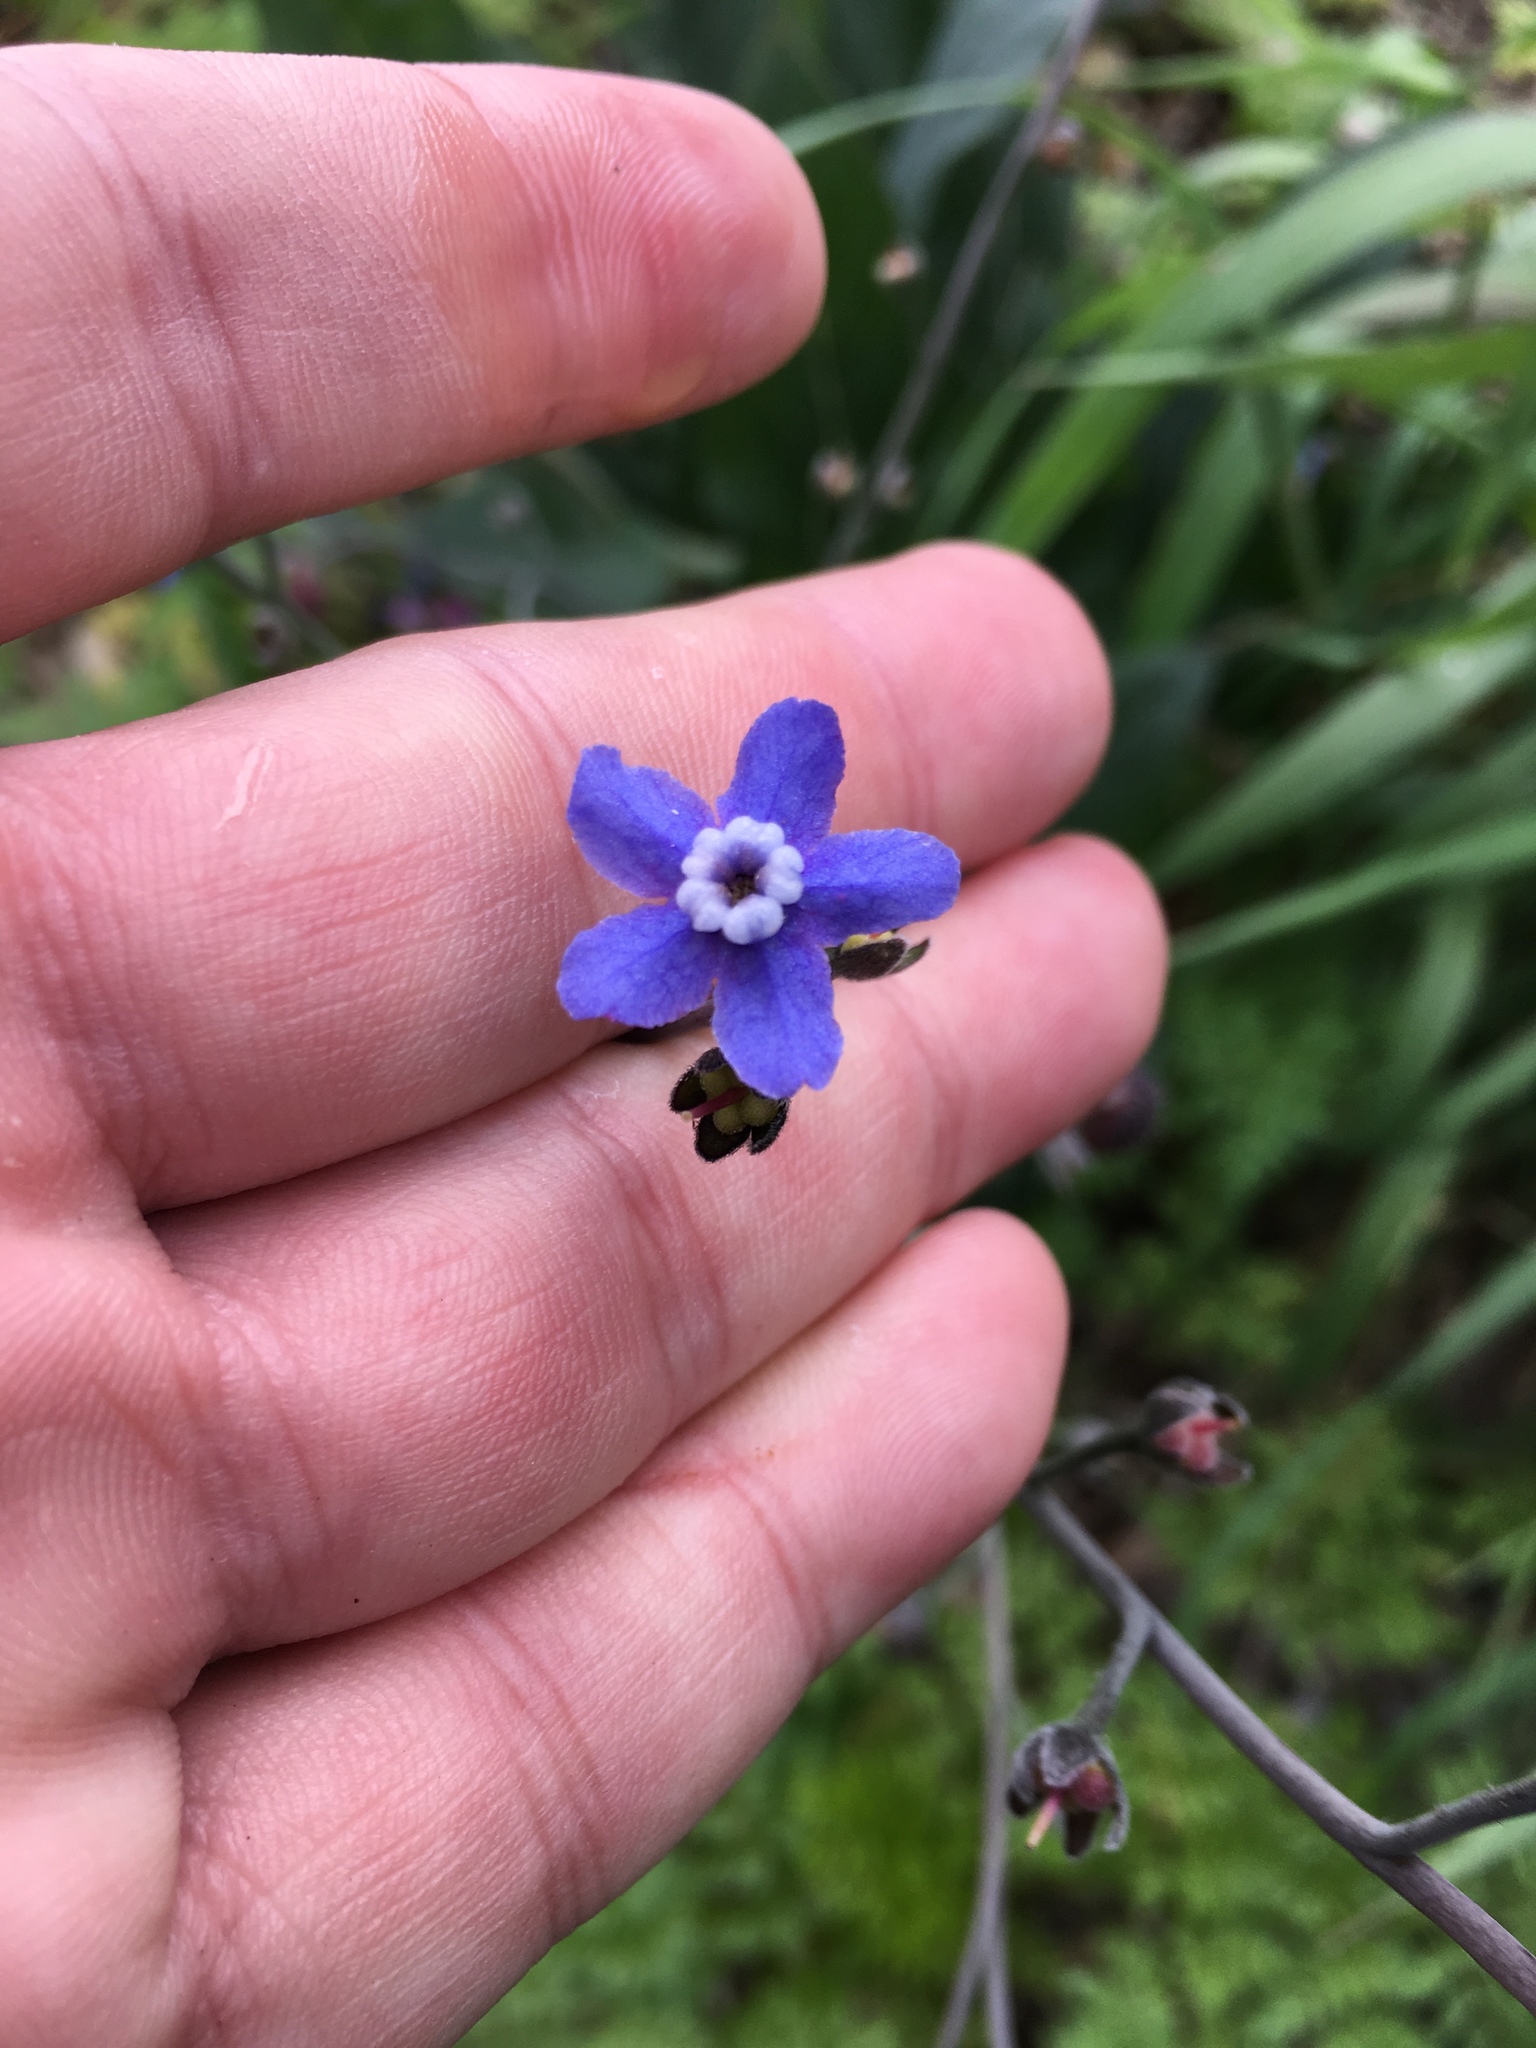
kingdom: Plantae
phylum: Tracheophyta
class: Magnoliopsida
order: Boraginales
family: Boraginaceae
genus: Adelinia
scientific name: Adelinia grande
